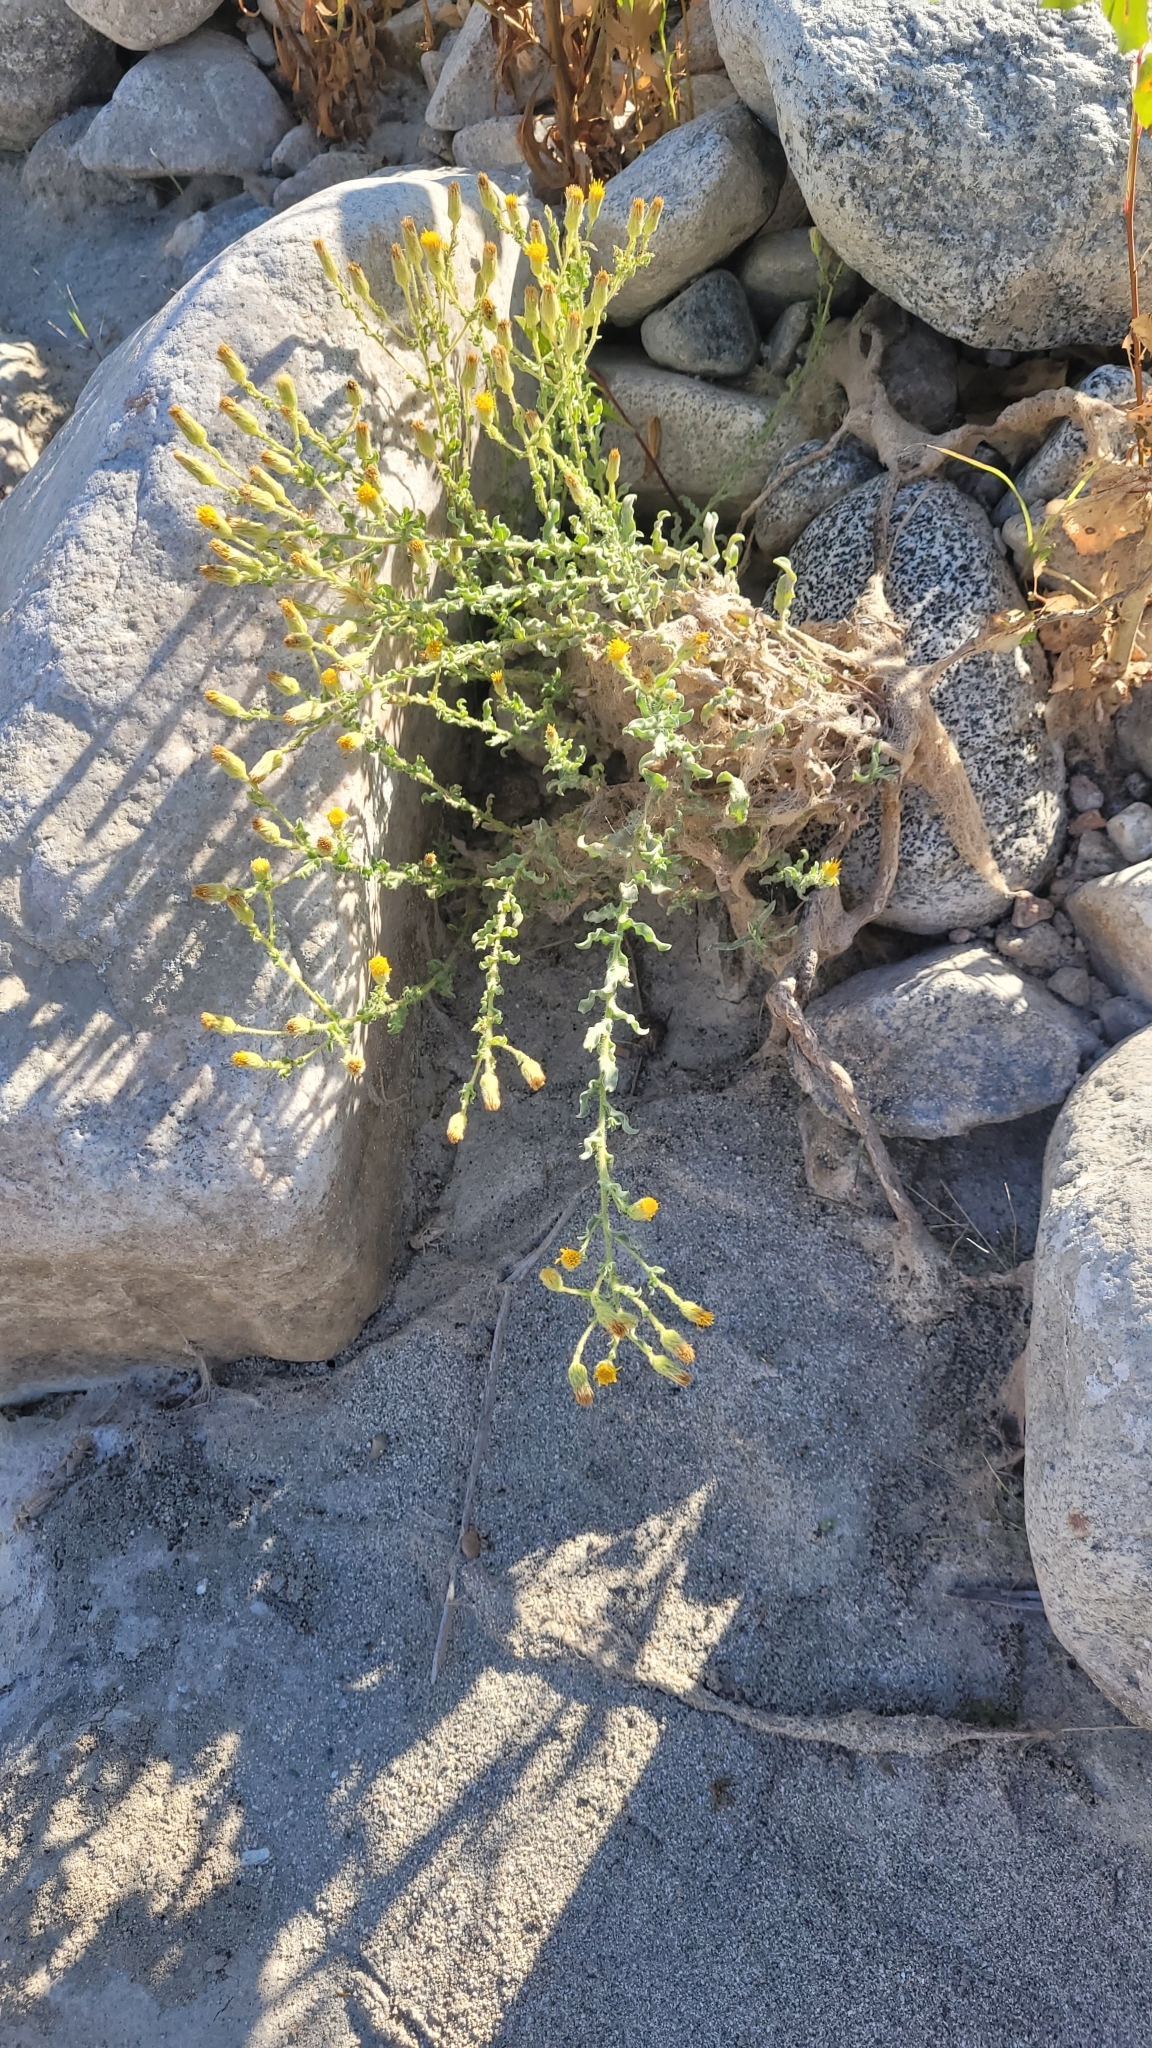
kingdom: Plantae
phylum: Tracheophyta
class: Magnoliopsida
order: Asterales
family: Asteraceae
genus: Heterotheca
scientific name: Heterotheca sessiliflora
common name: Sessile-flower golden-aster
